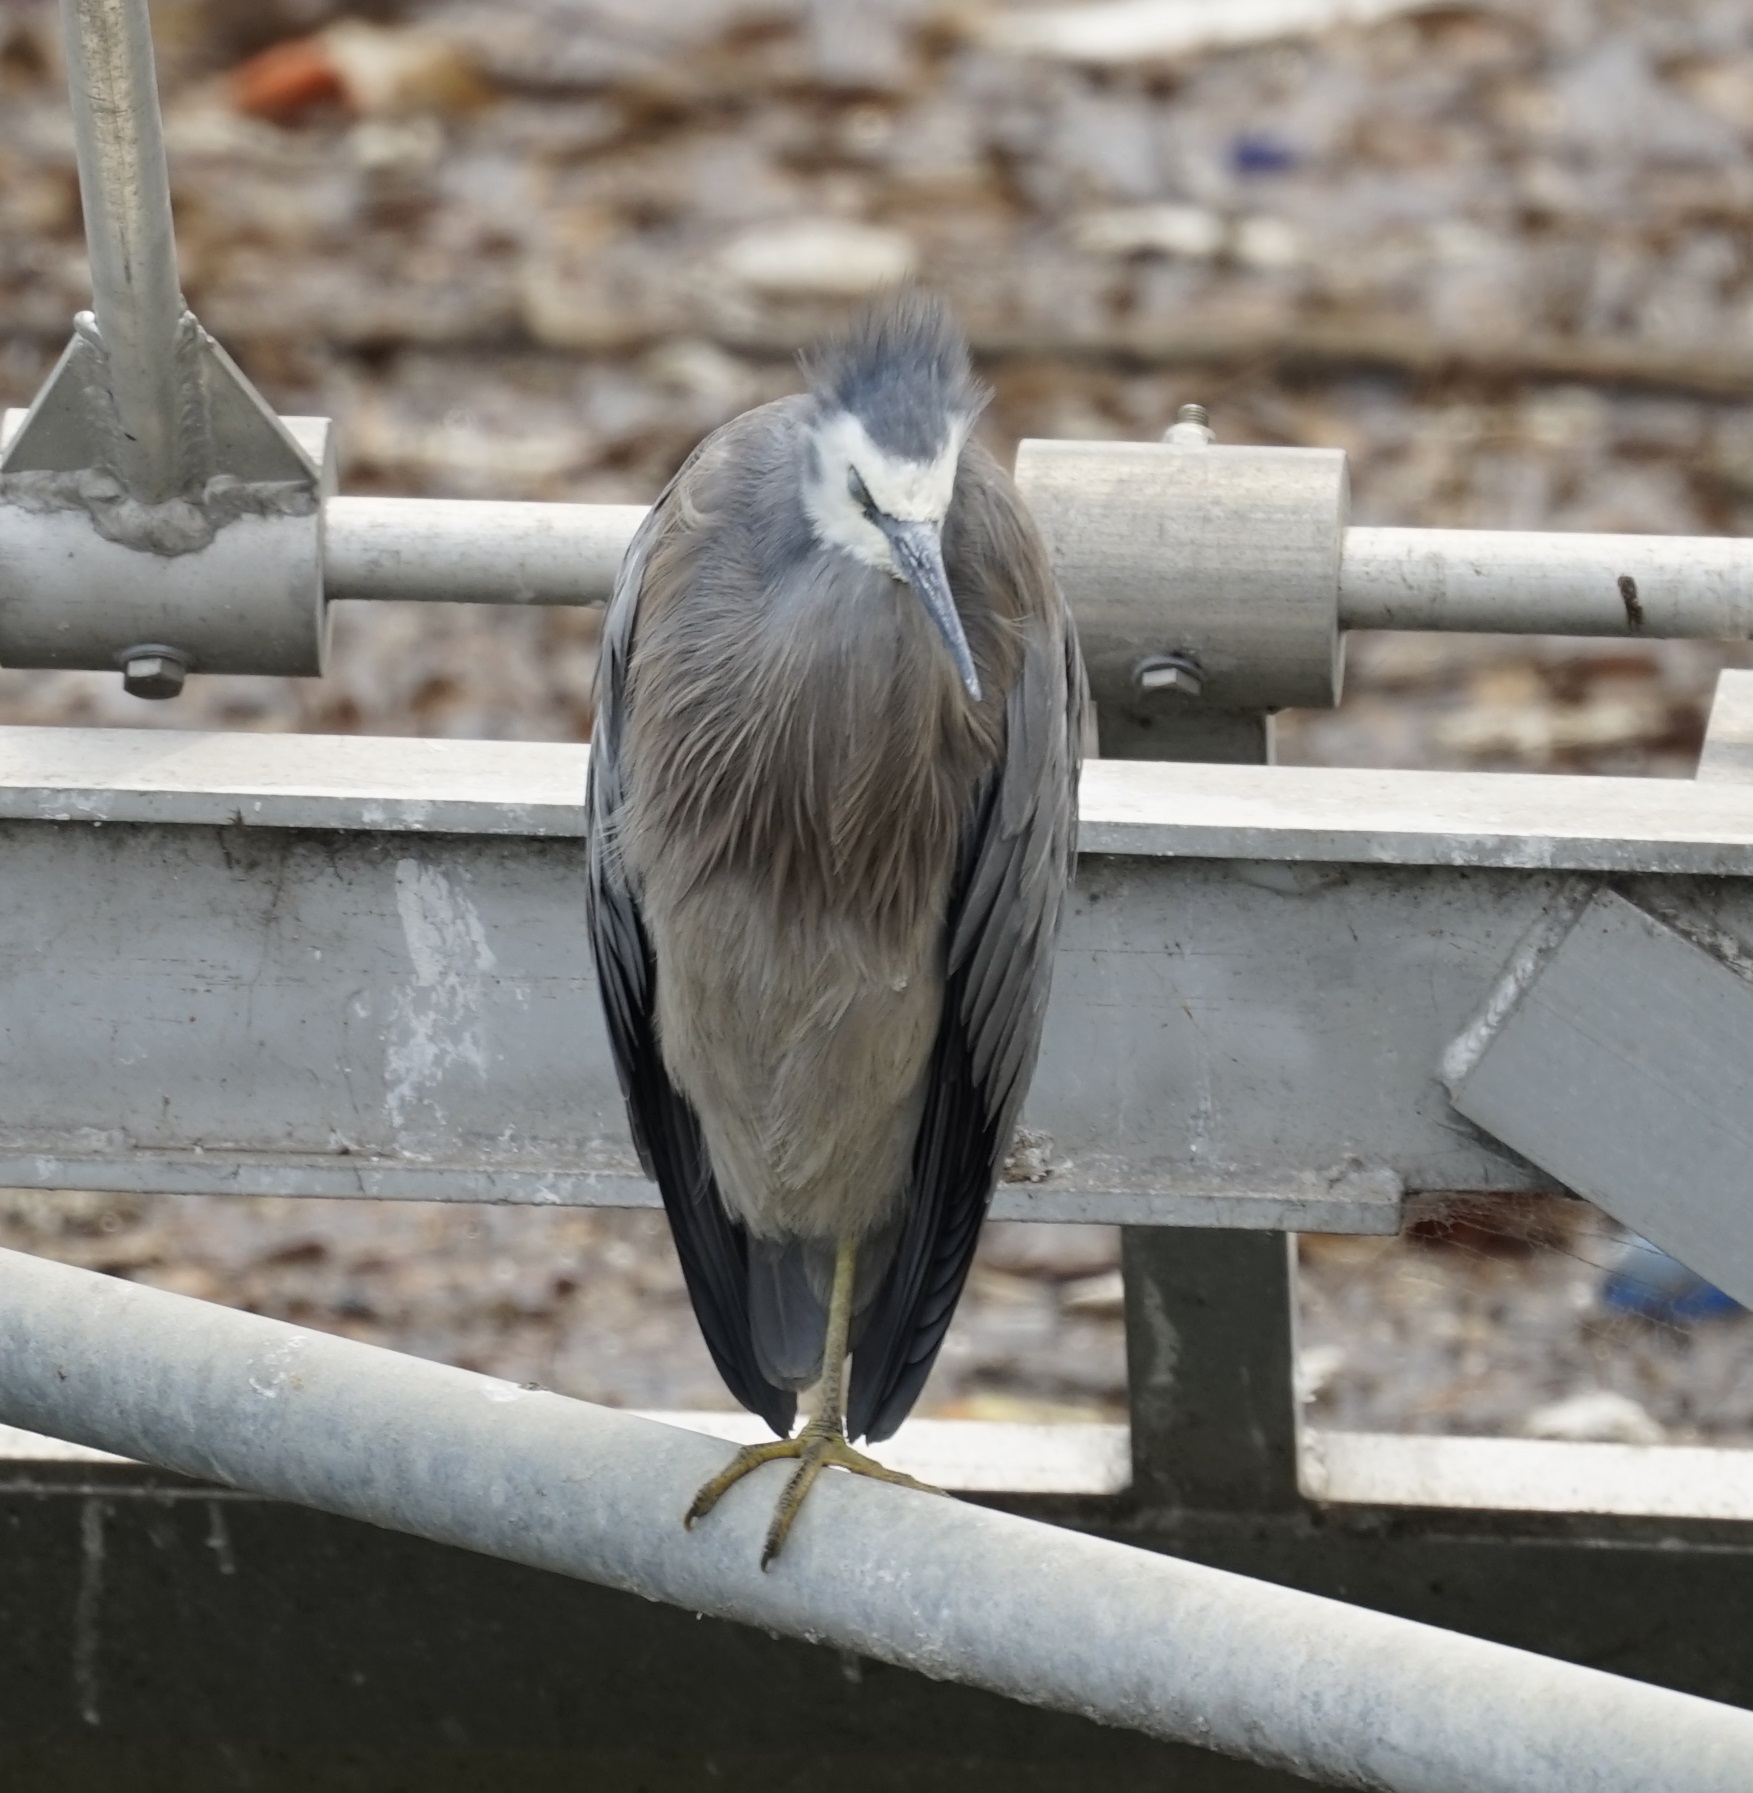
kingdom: Animalia
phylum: Chordata
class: Aves
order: Pelecaniformes
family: Ardeidae
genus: Egretta
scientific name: Egretta novaehollandiae
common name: White-faced heron
